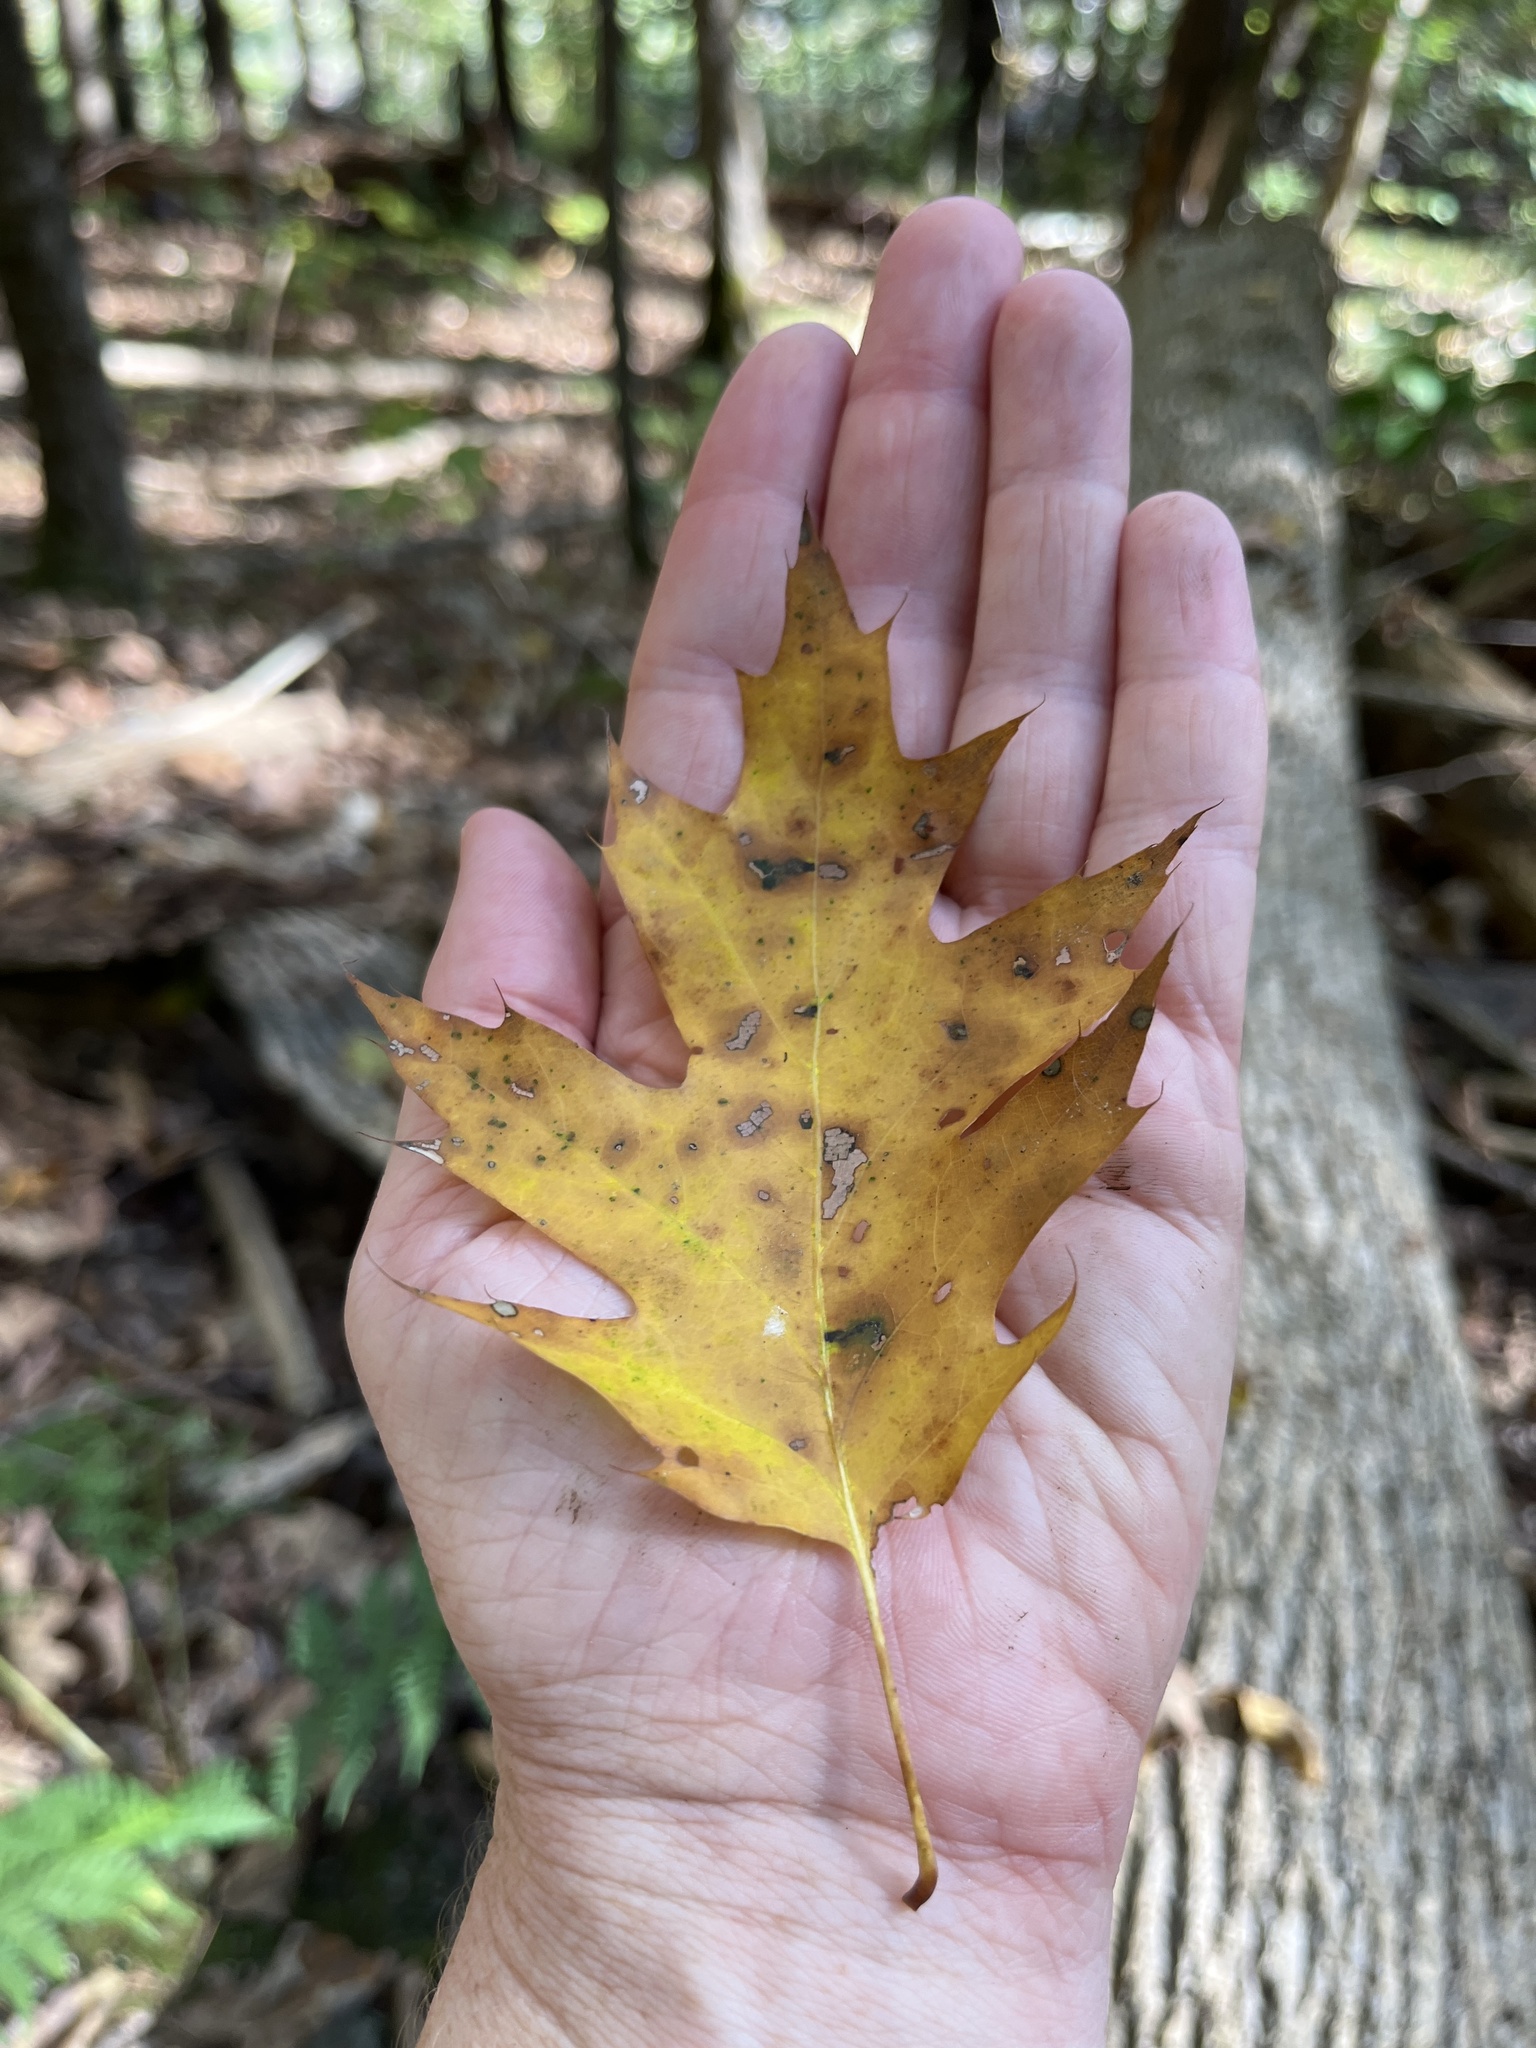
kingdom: Plantae
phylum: Tracheophyta
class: Magnoliopsida
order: Fagales
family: Fagaceae
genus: Quercus
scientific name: Quercus rubra
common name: Red oak
